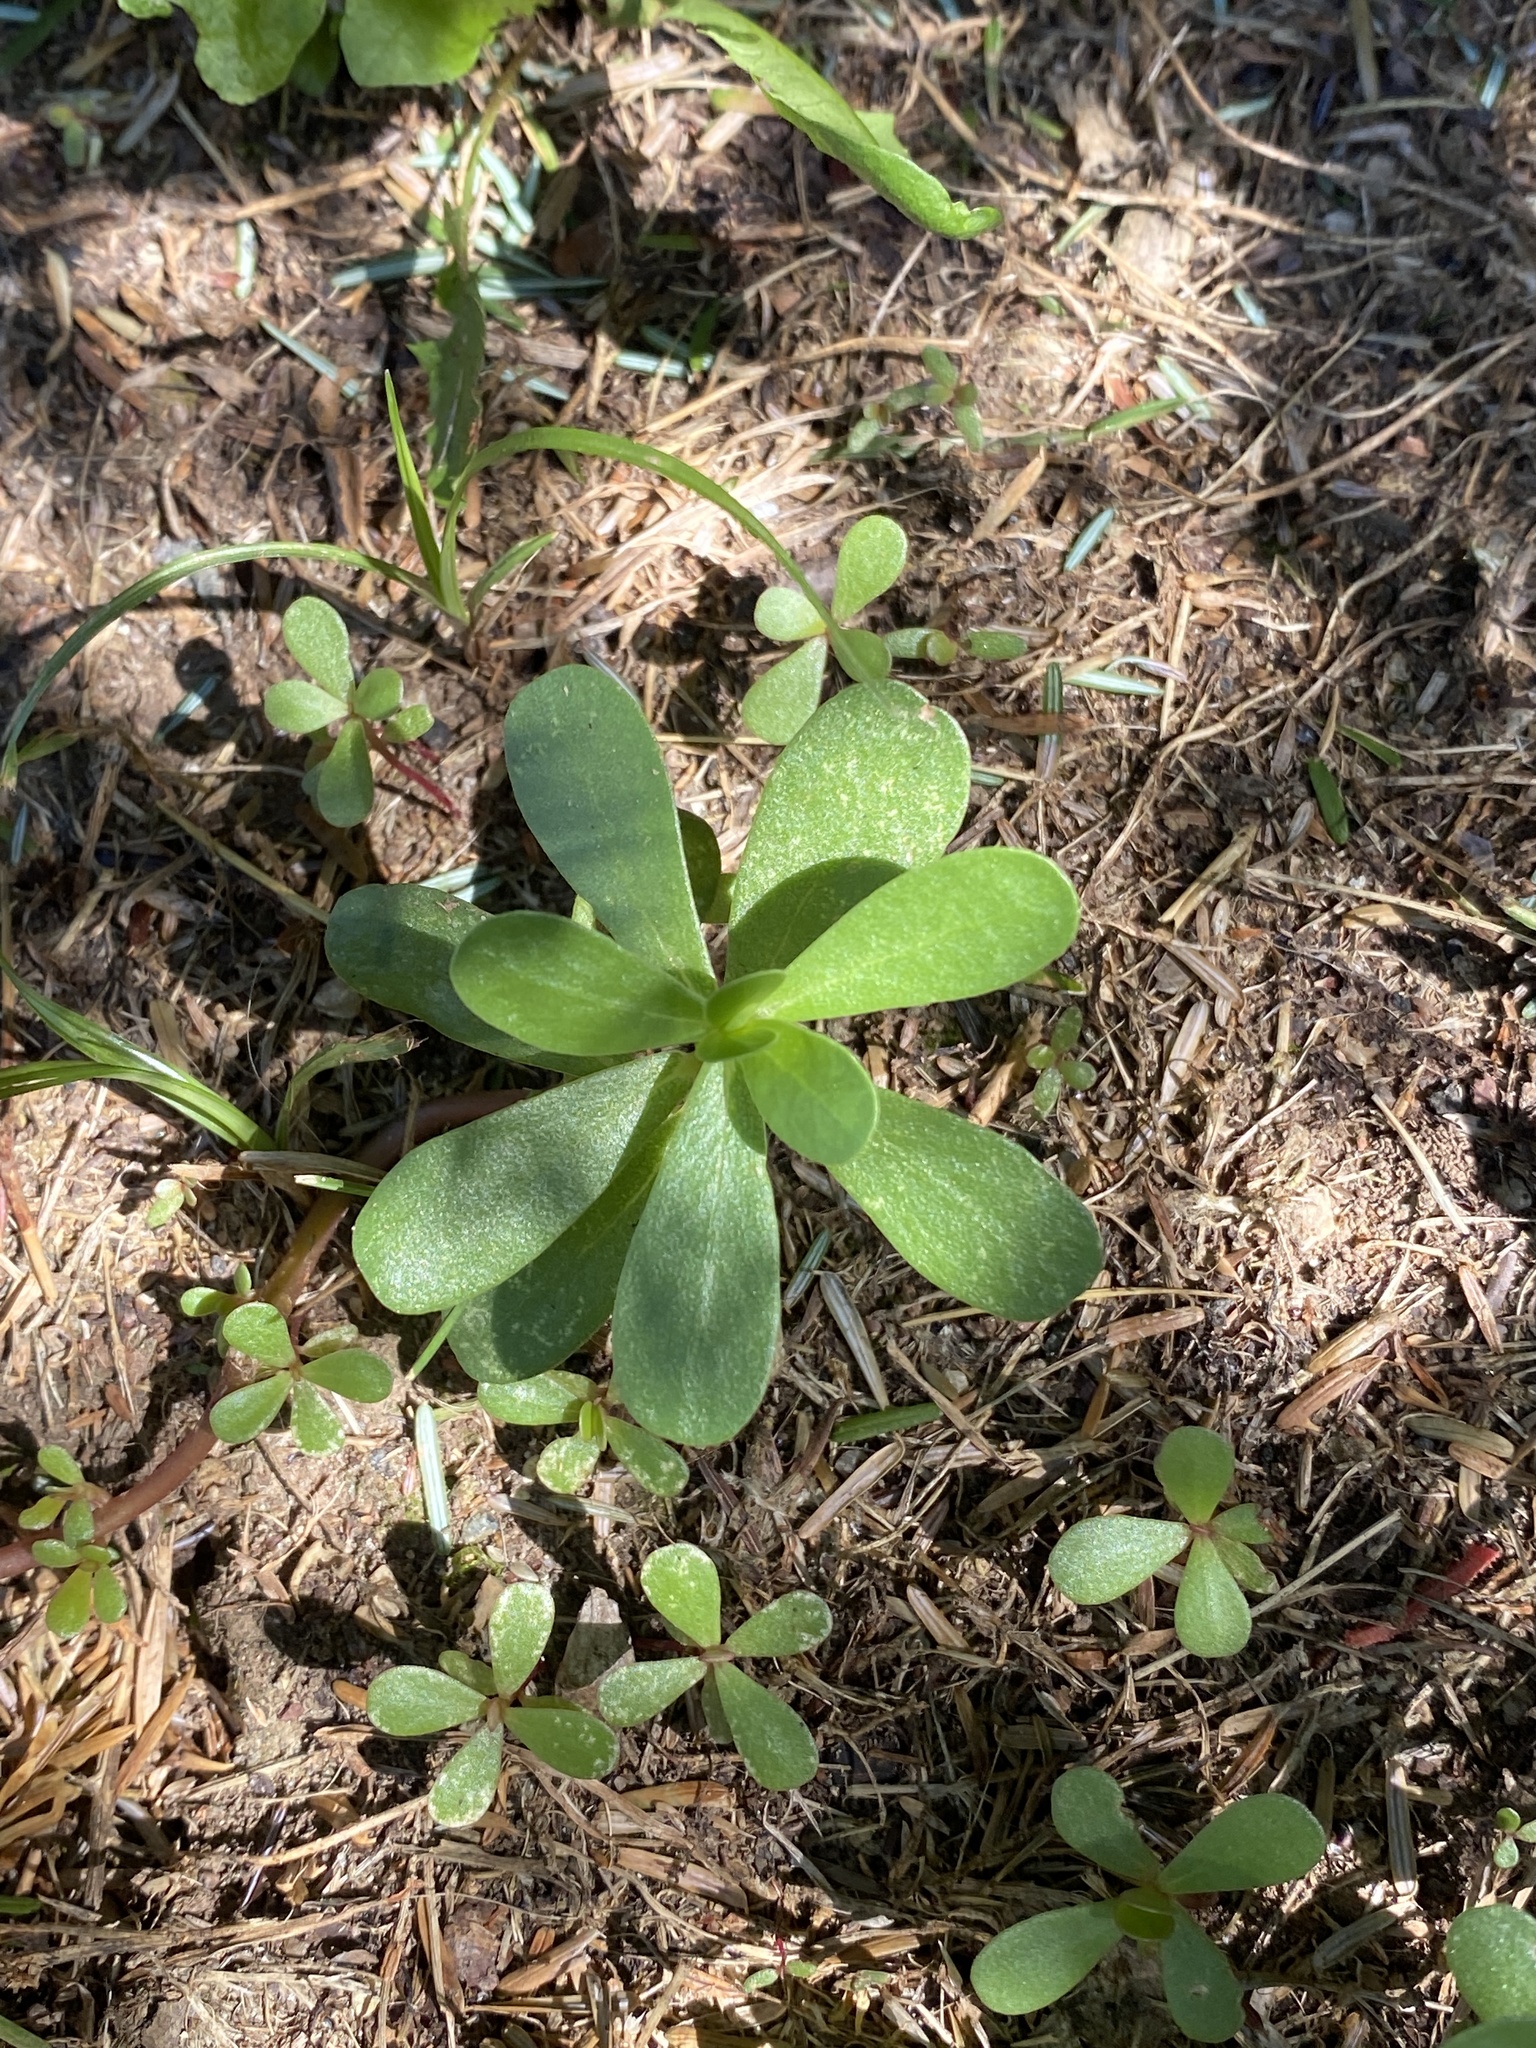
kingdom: Plantae
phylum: Tracheophyta
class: Magnoliopsida
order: Caryophyllales
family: Portulacaceae
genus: Portulaca
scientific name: Portulaca oleracea
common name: Common purslane
